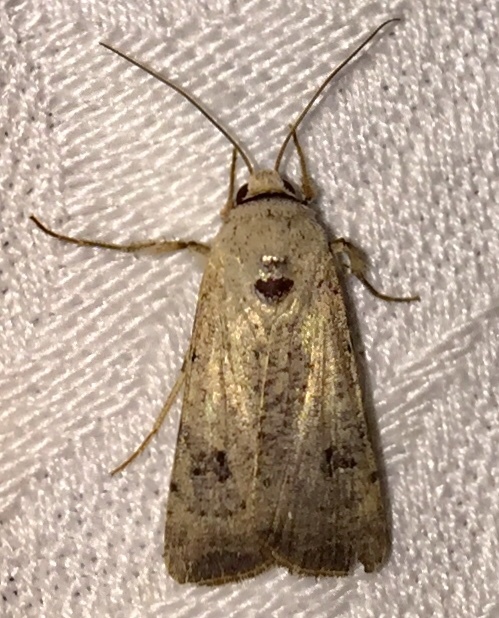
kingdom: Animalia
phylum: Arthropoda
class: Insecta
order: Lepidoptera
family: Noctuidae
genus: Anicla
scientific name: Anicla infecta
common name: Green cutworm
